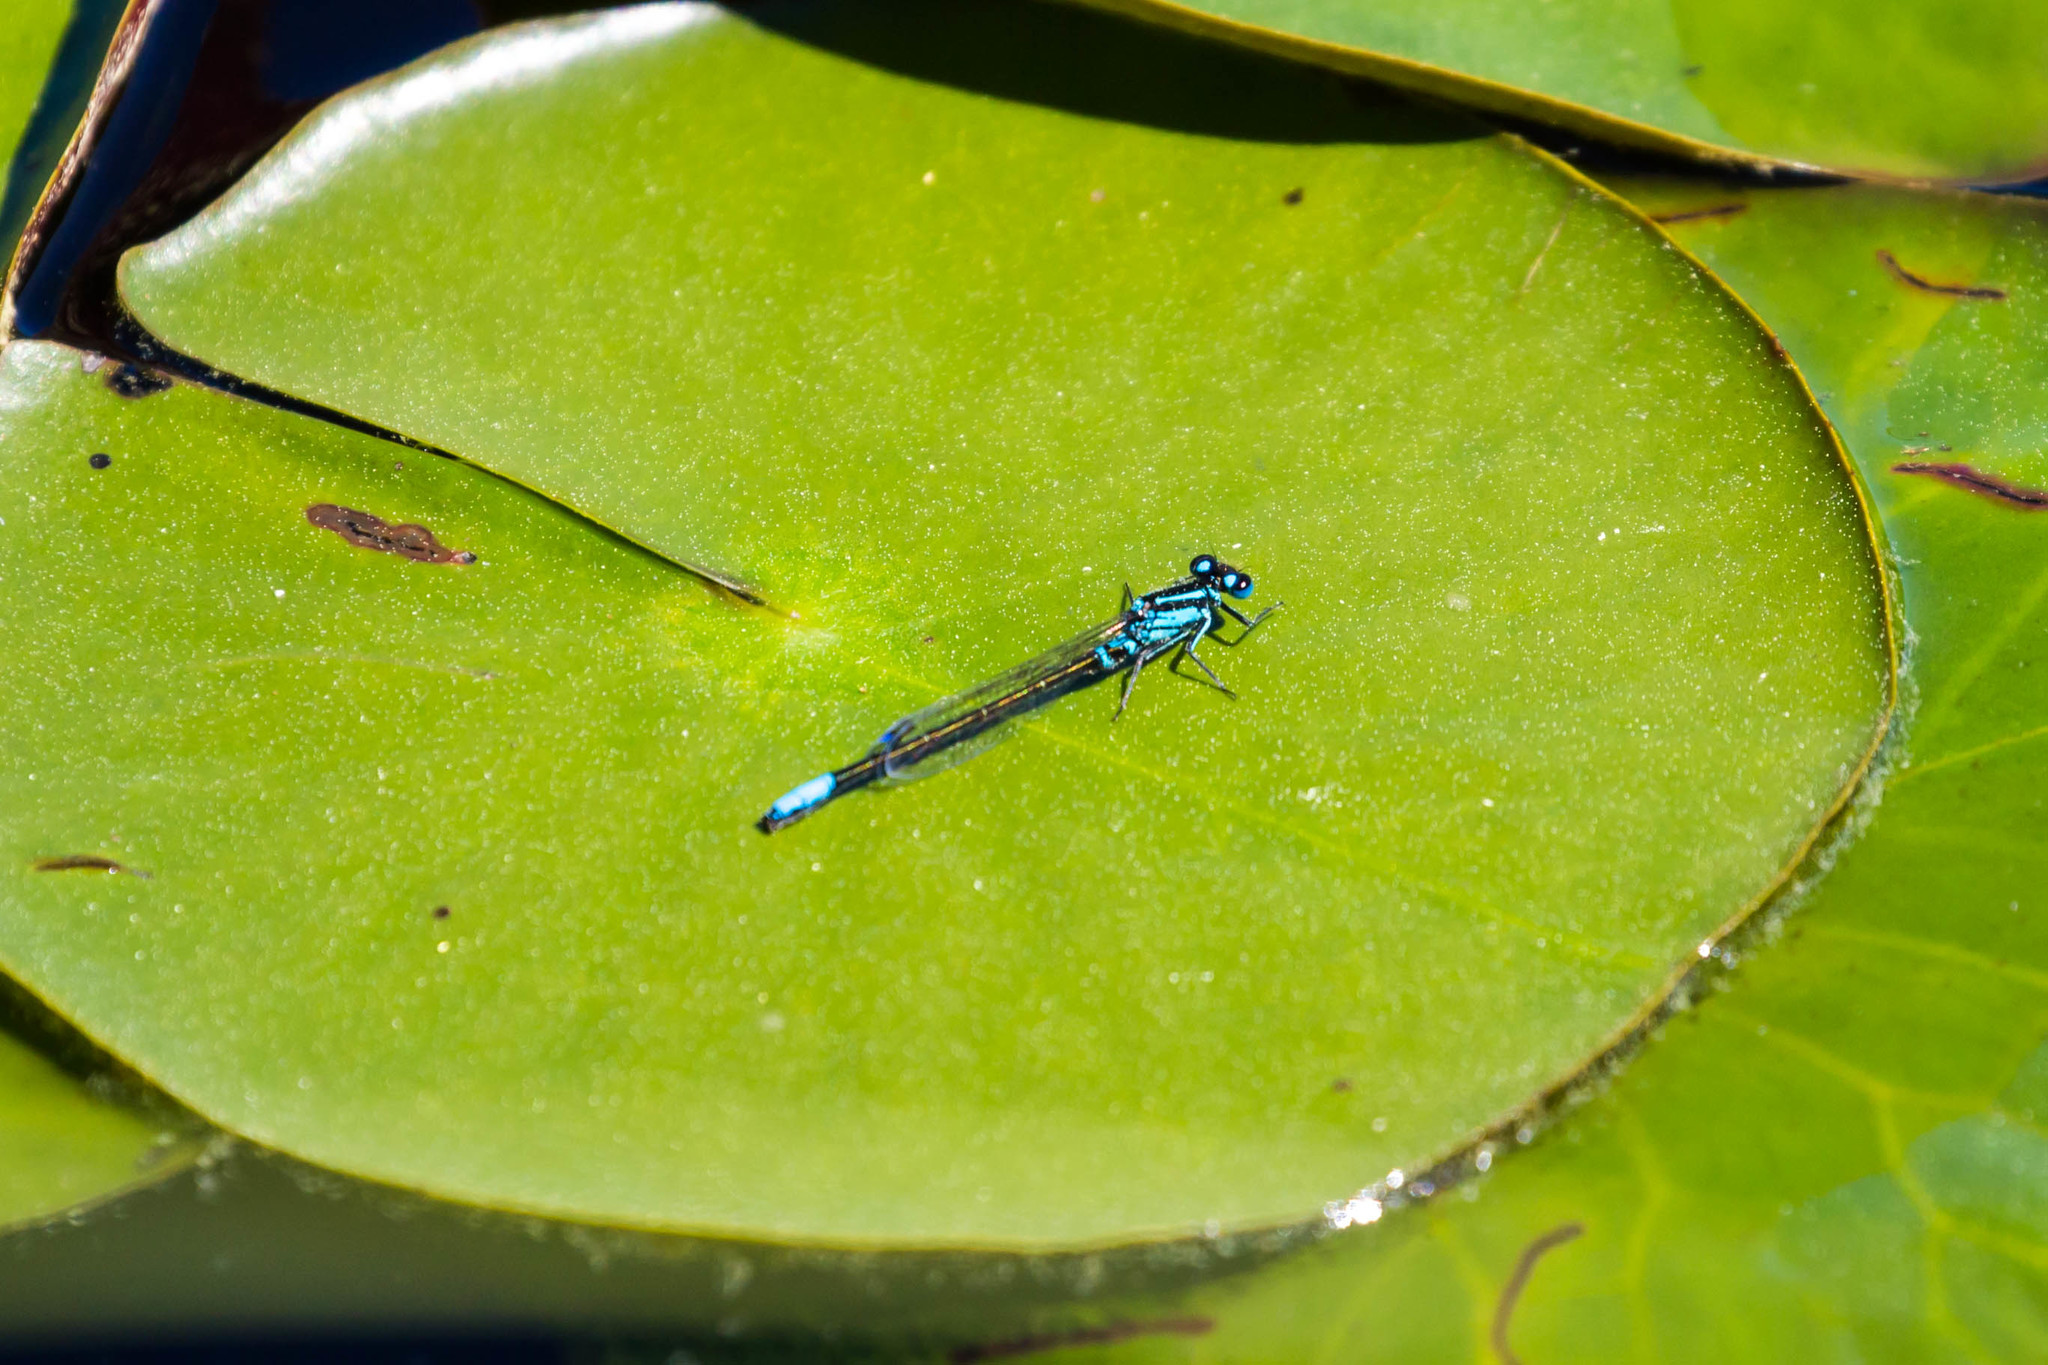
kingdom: Animalia
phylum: Arthropoda
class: Insecta
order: Odonata
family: Coenagrionidae
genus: Ischnura
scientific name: Ischnura kellicotti
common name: Lilypad forktail
